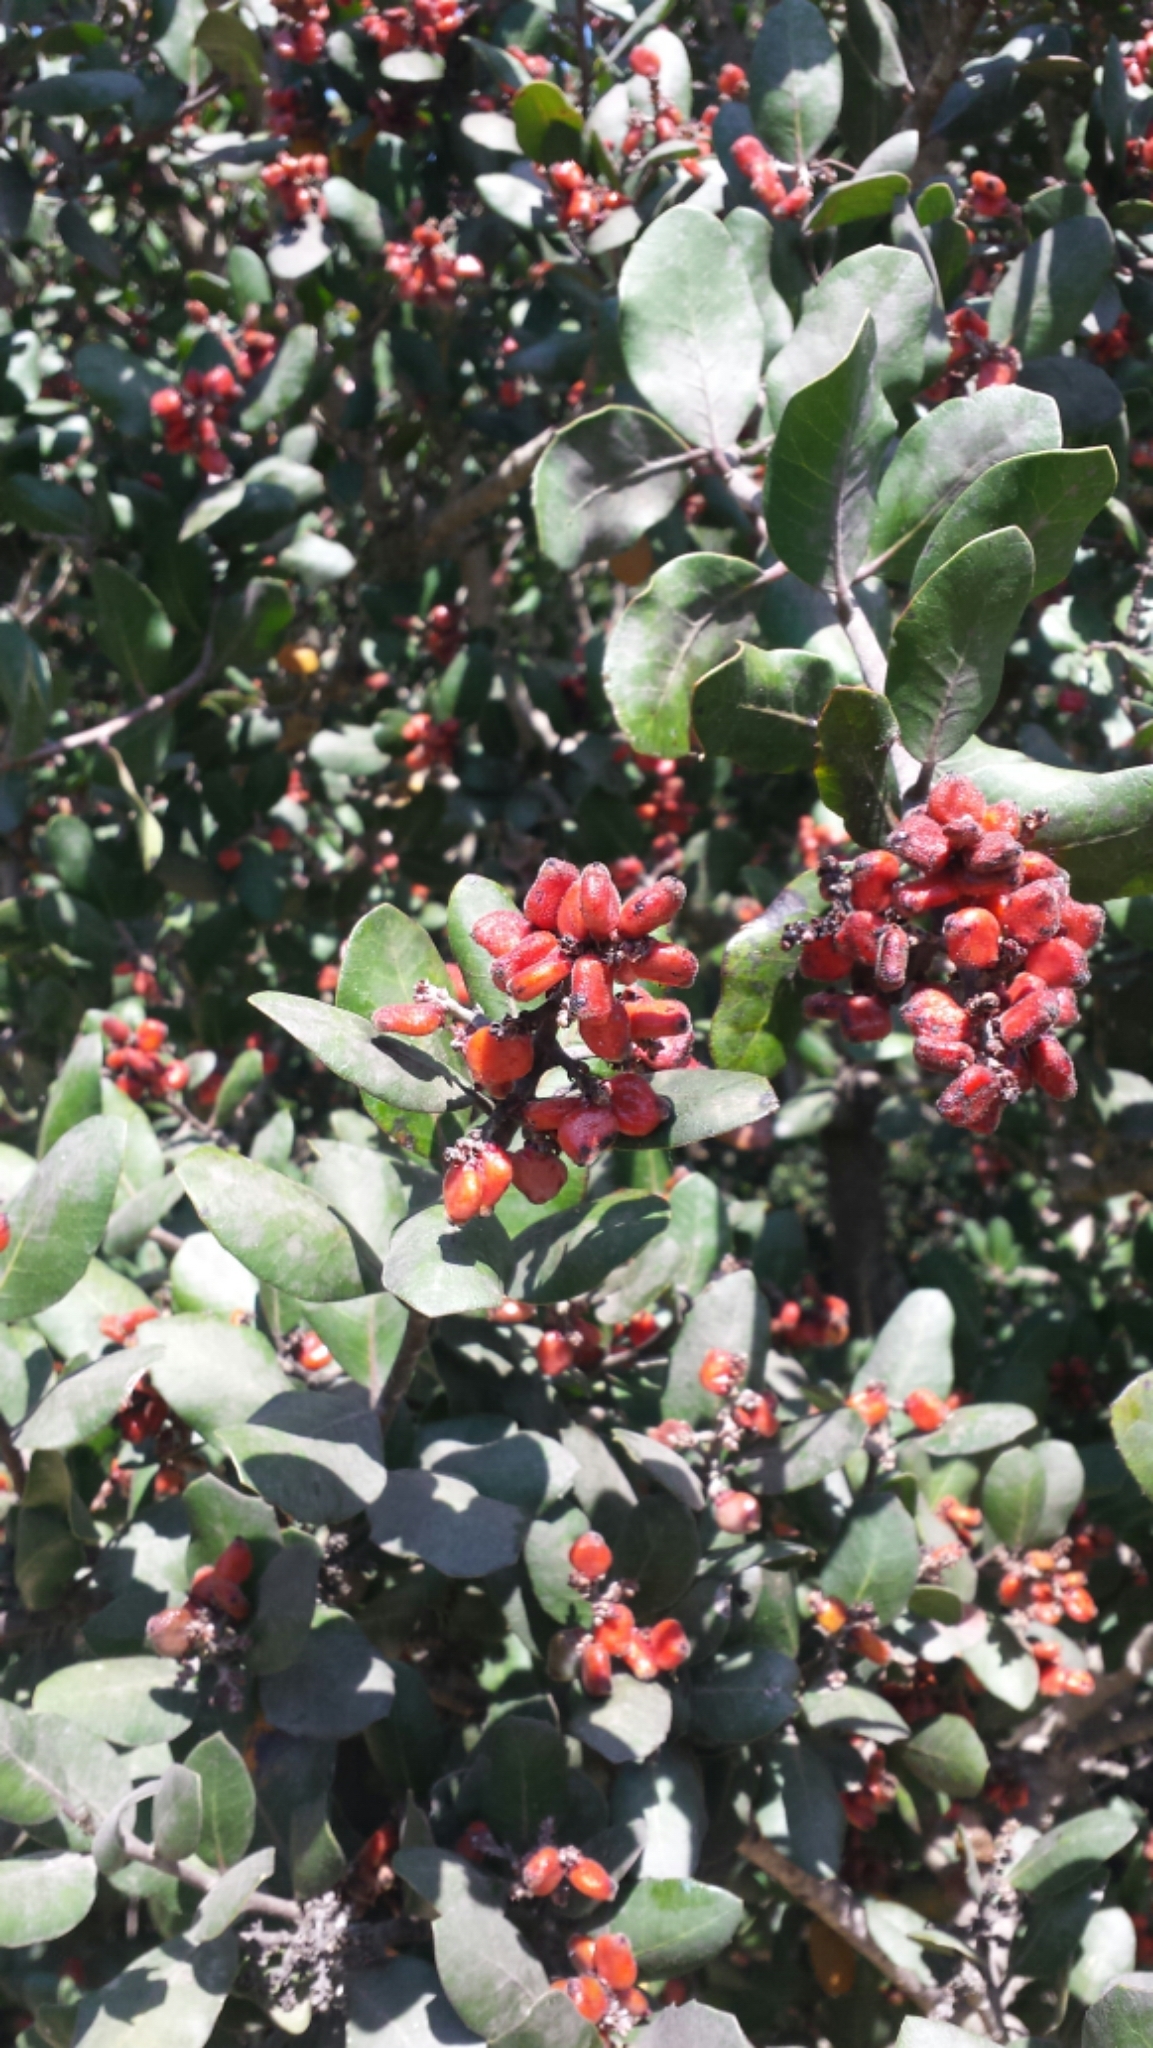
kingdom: Plantae
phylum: Tracheophyta
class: Magnoliopsida
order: Sapindales
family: Anacardiaceae
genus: Rhus
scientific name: Rhus integrifolia
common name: Lemonade sumac
